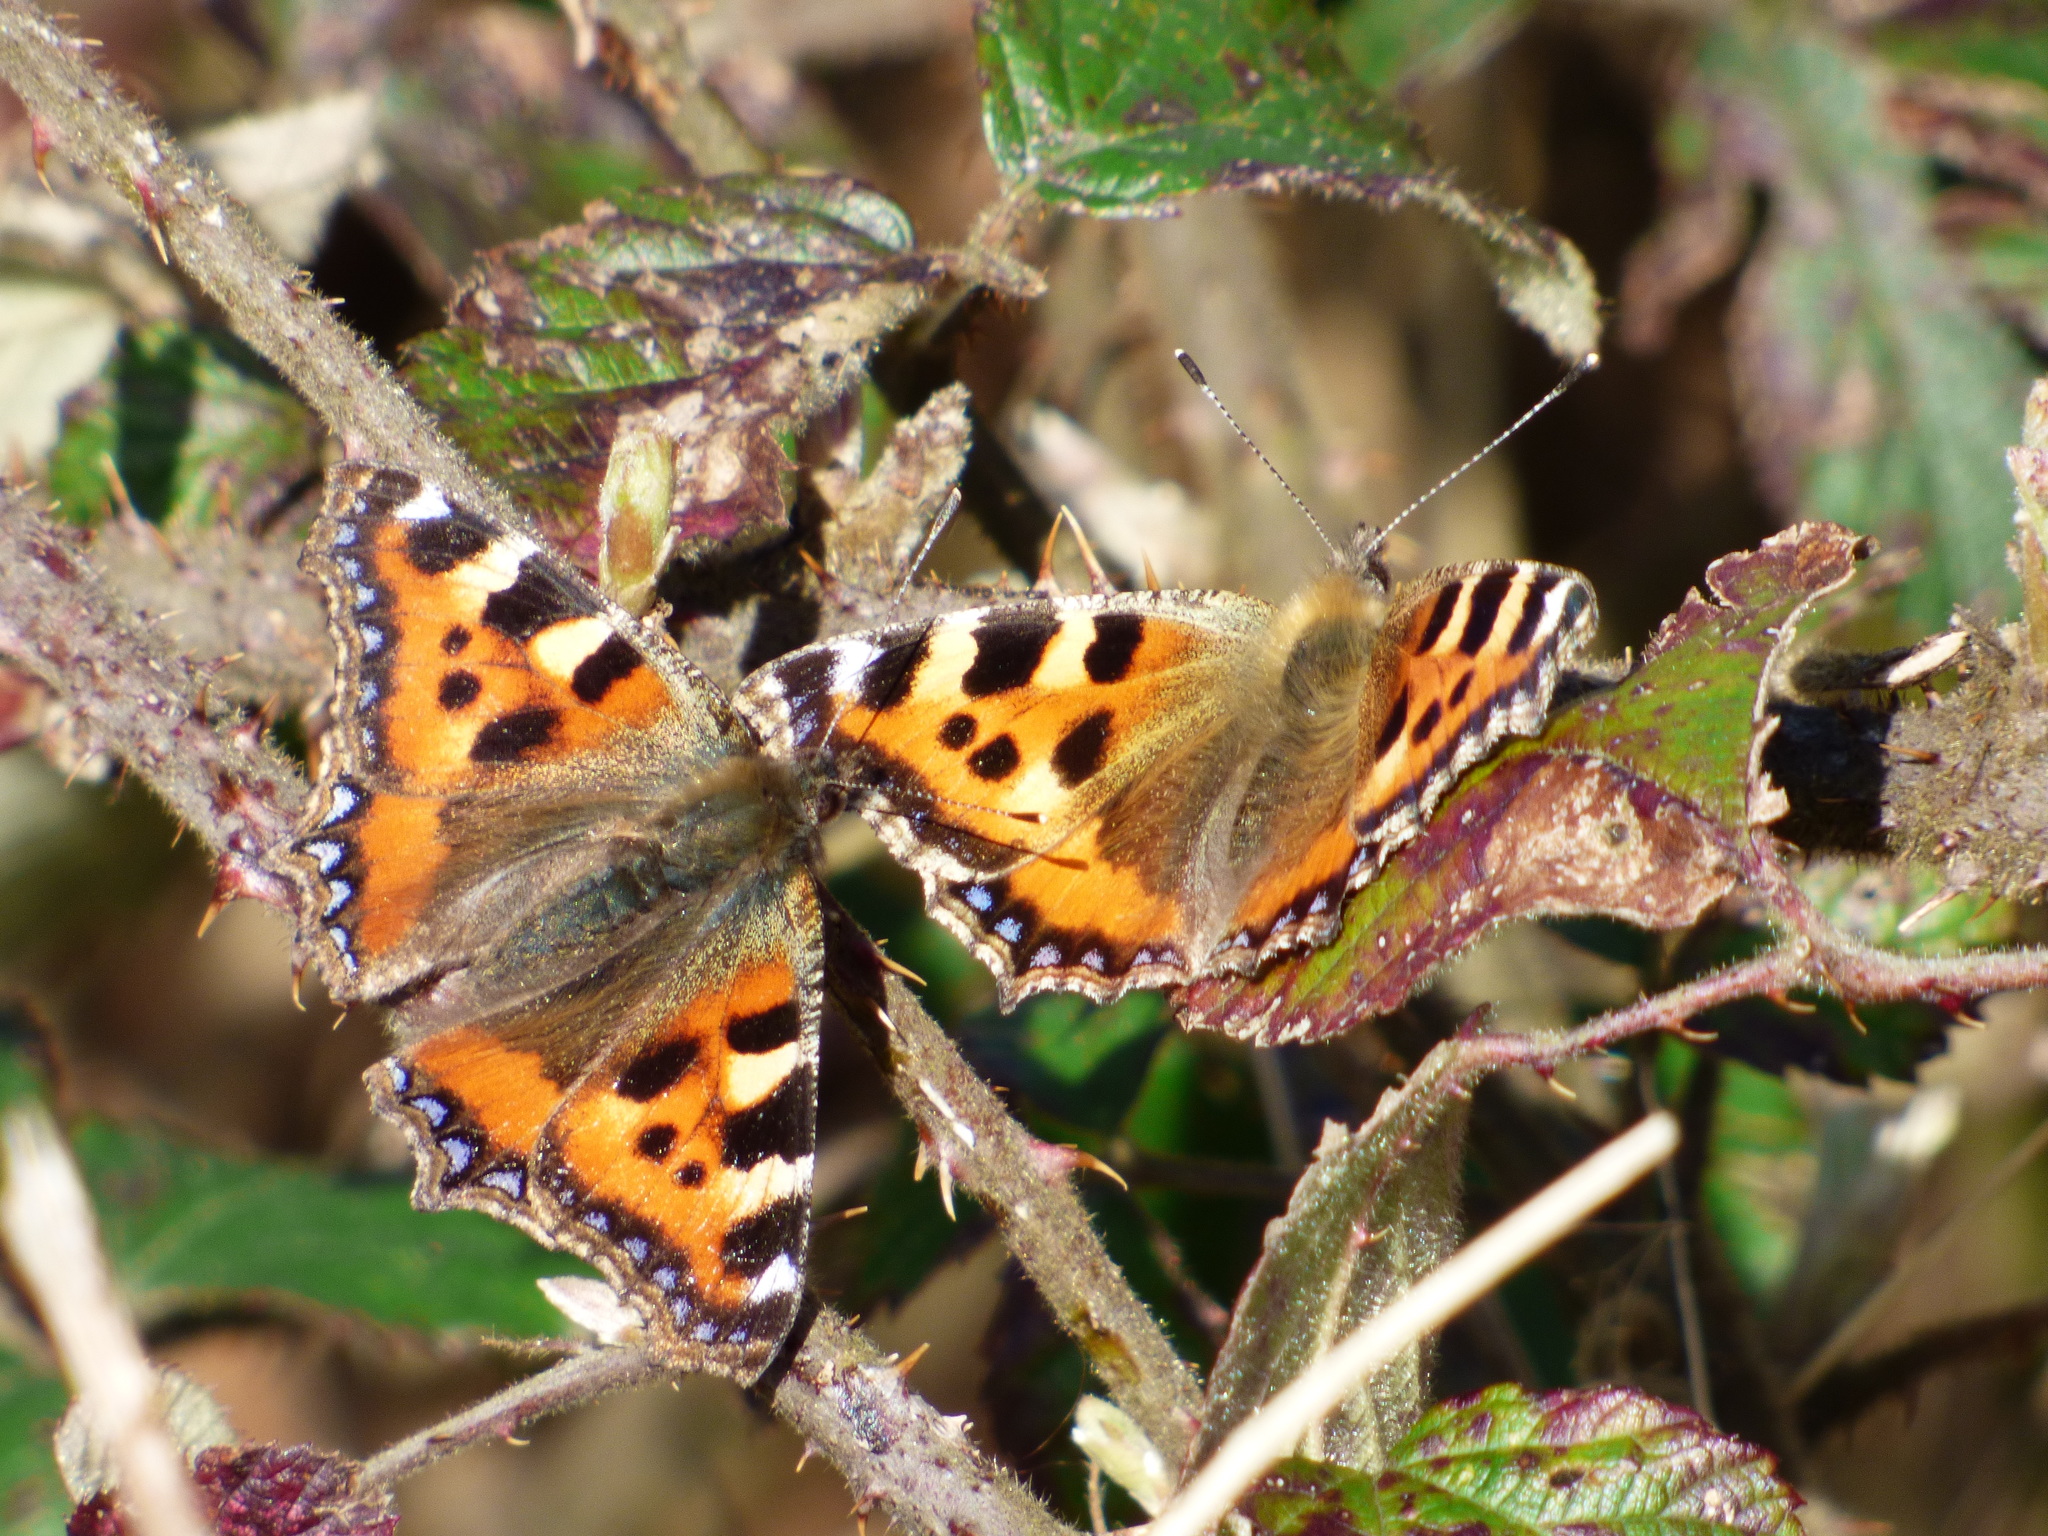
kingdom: Animalia
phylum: Arthropoda
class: Insecta
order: Lepidoptera
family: Nymphalidae
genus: Aglais
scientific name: Aglais urticae
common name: Small tortoiseshell
